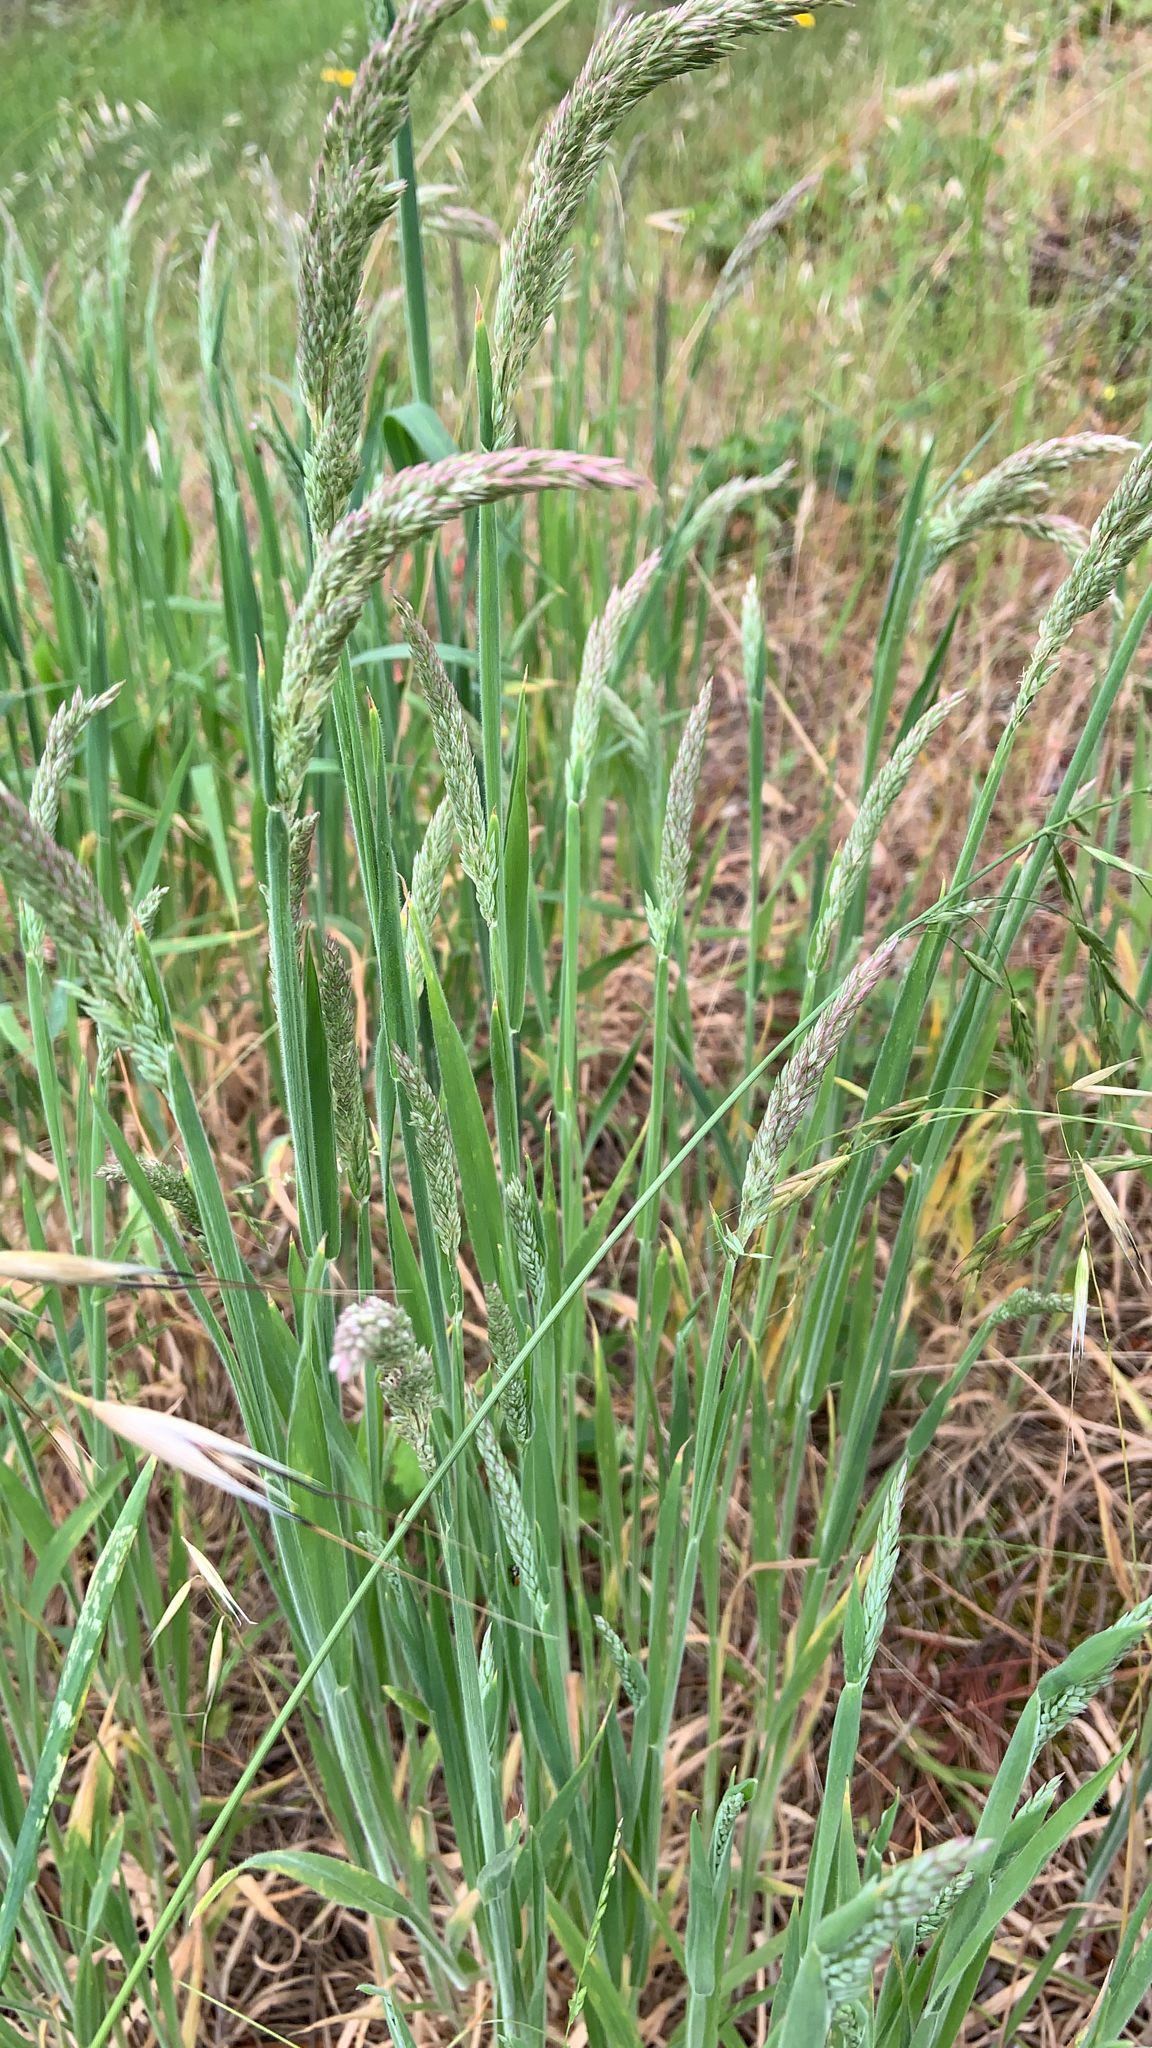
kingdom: Plantae
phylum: Tracheophyta
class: Liliopsida
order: Poales
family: Poaceae
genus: Holcus
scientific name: Holcus lanatus
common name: Yorkshire-fog
